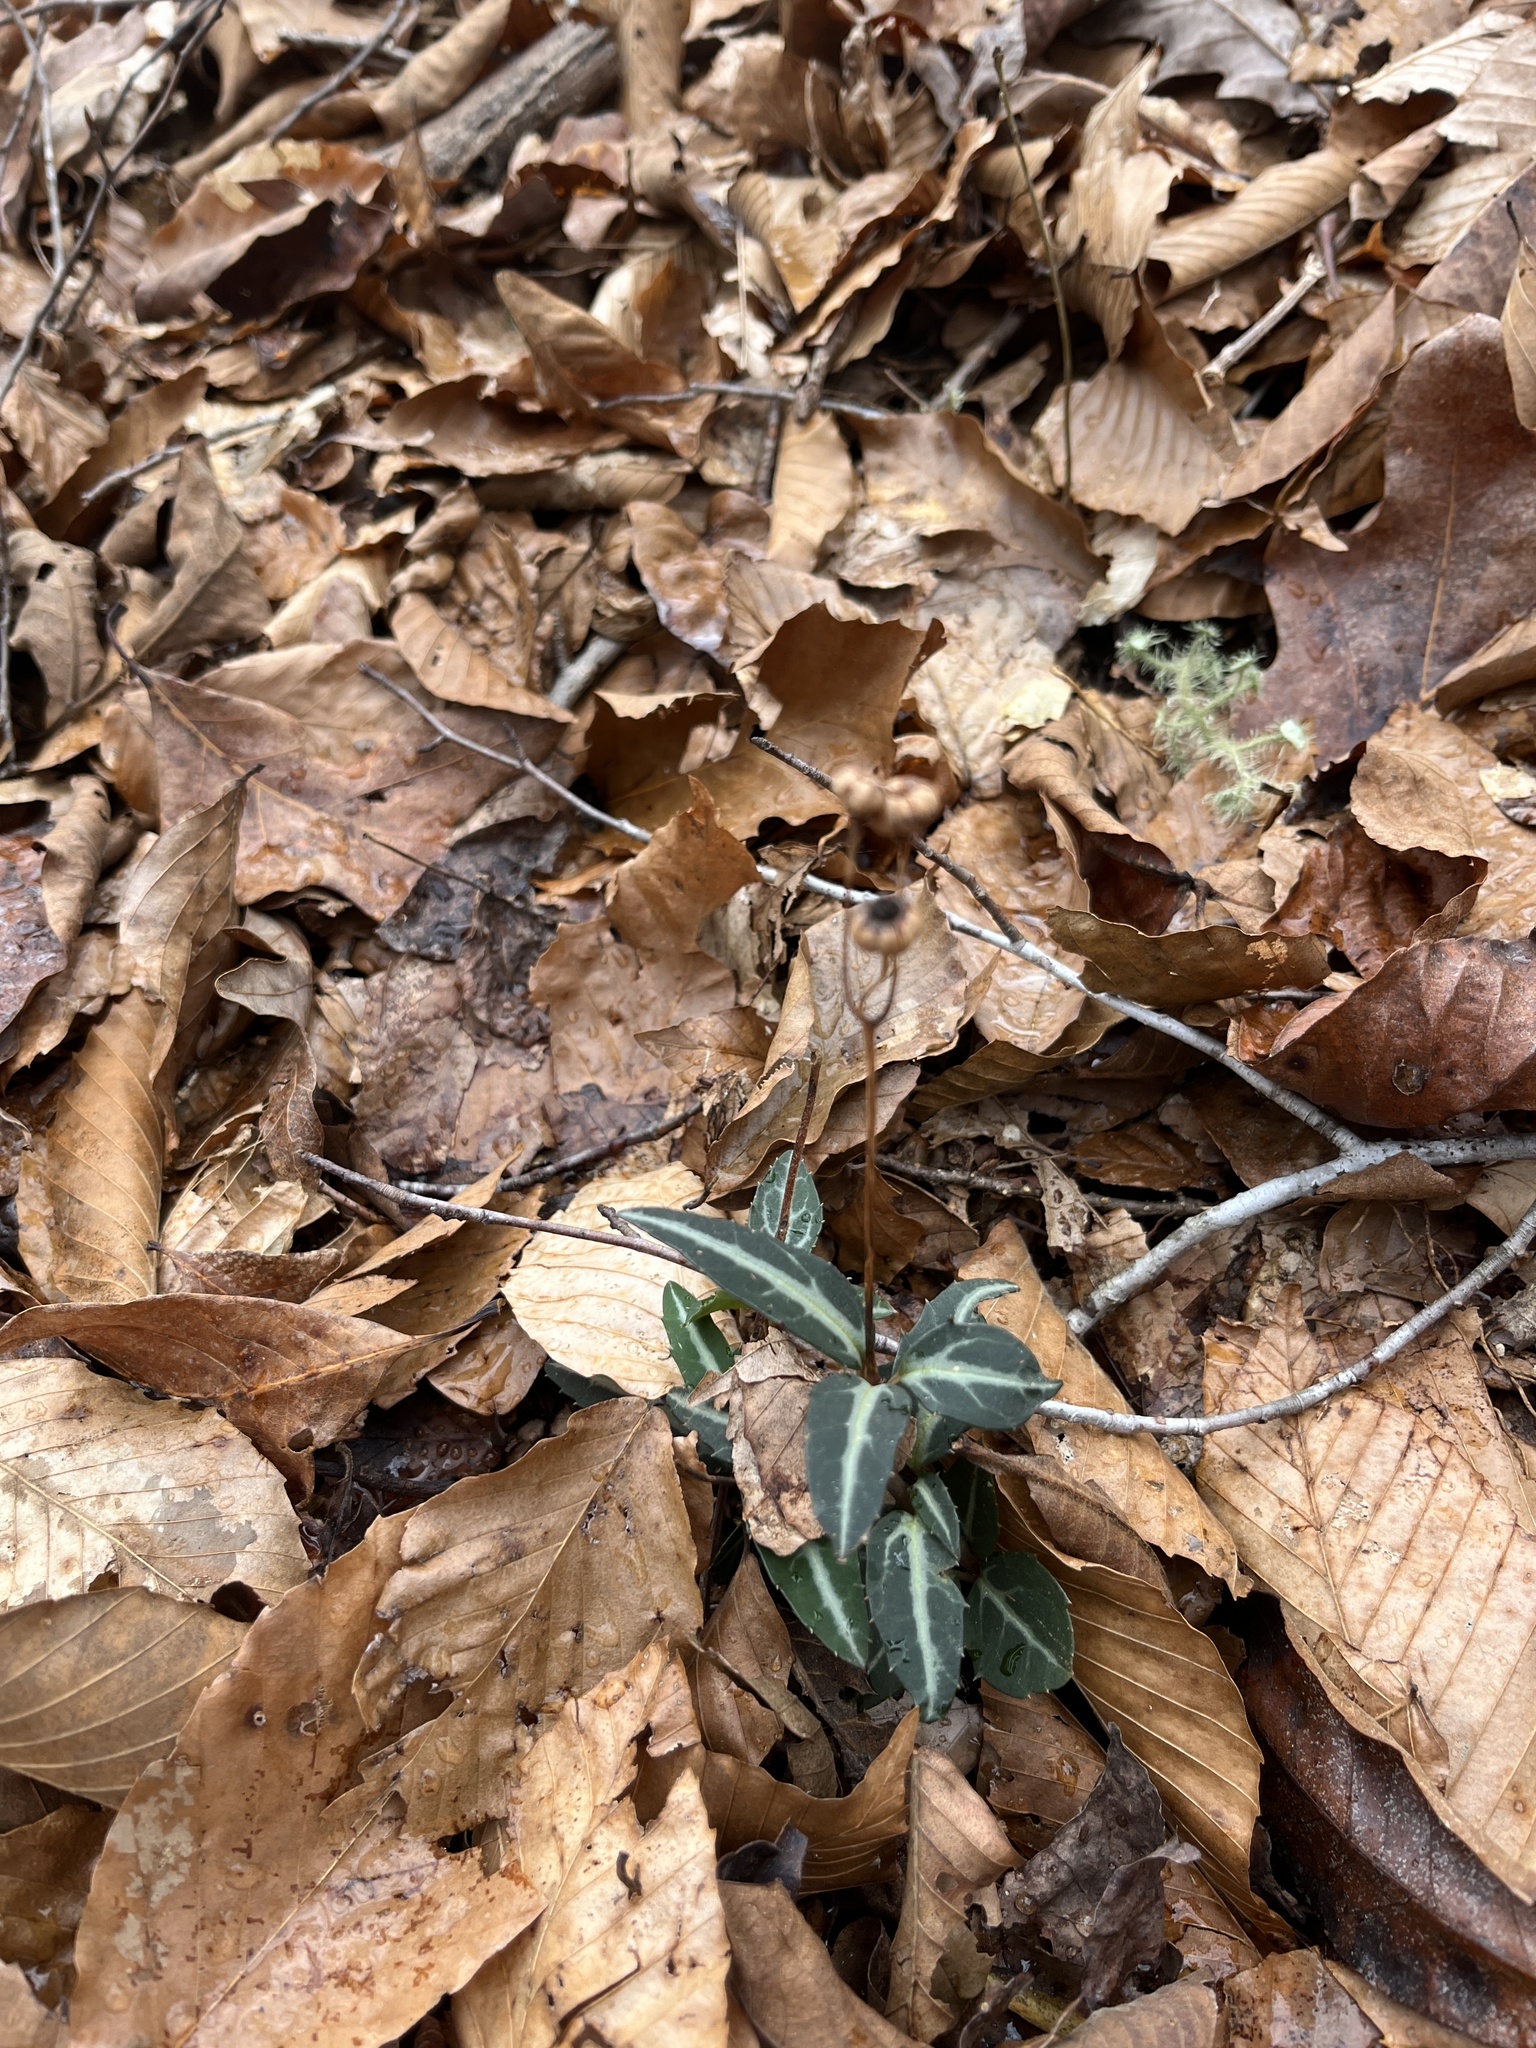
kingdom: Plantae
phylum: Tracheophyta
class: Magnoliopsida
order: Ericales
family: Ericaceae
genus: Chimaphila
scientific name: Chimaphila maculata
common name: Spotted pipsissewa
